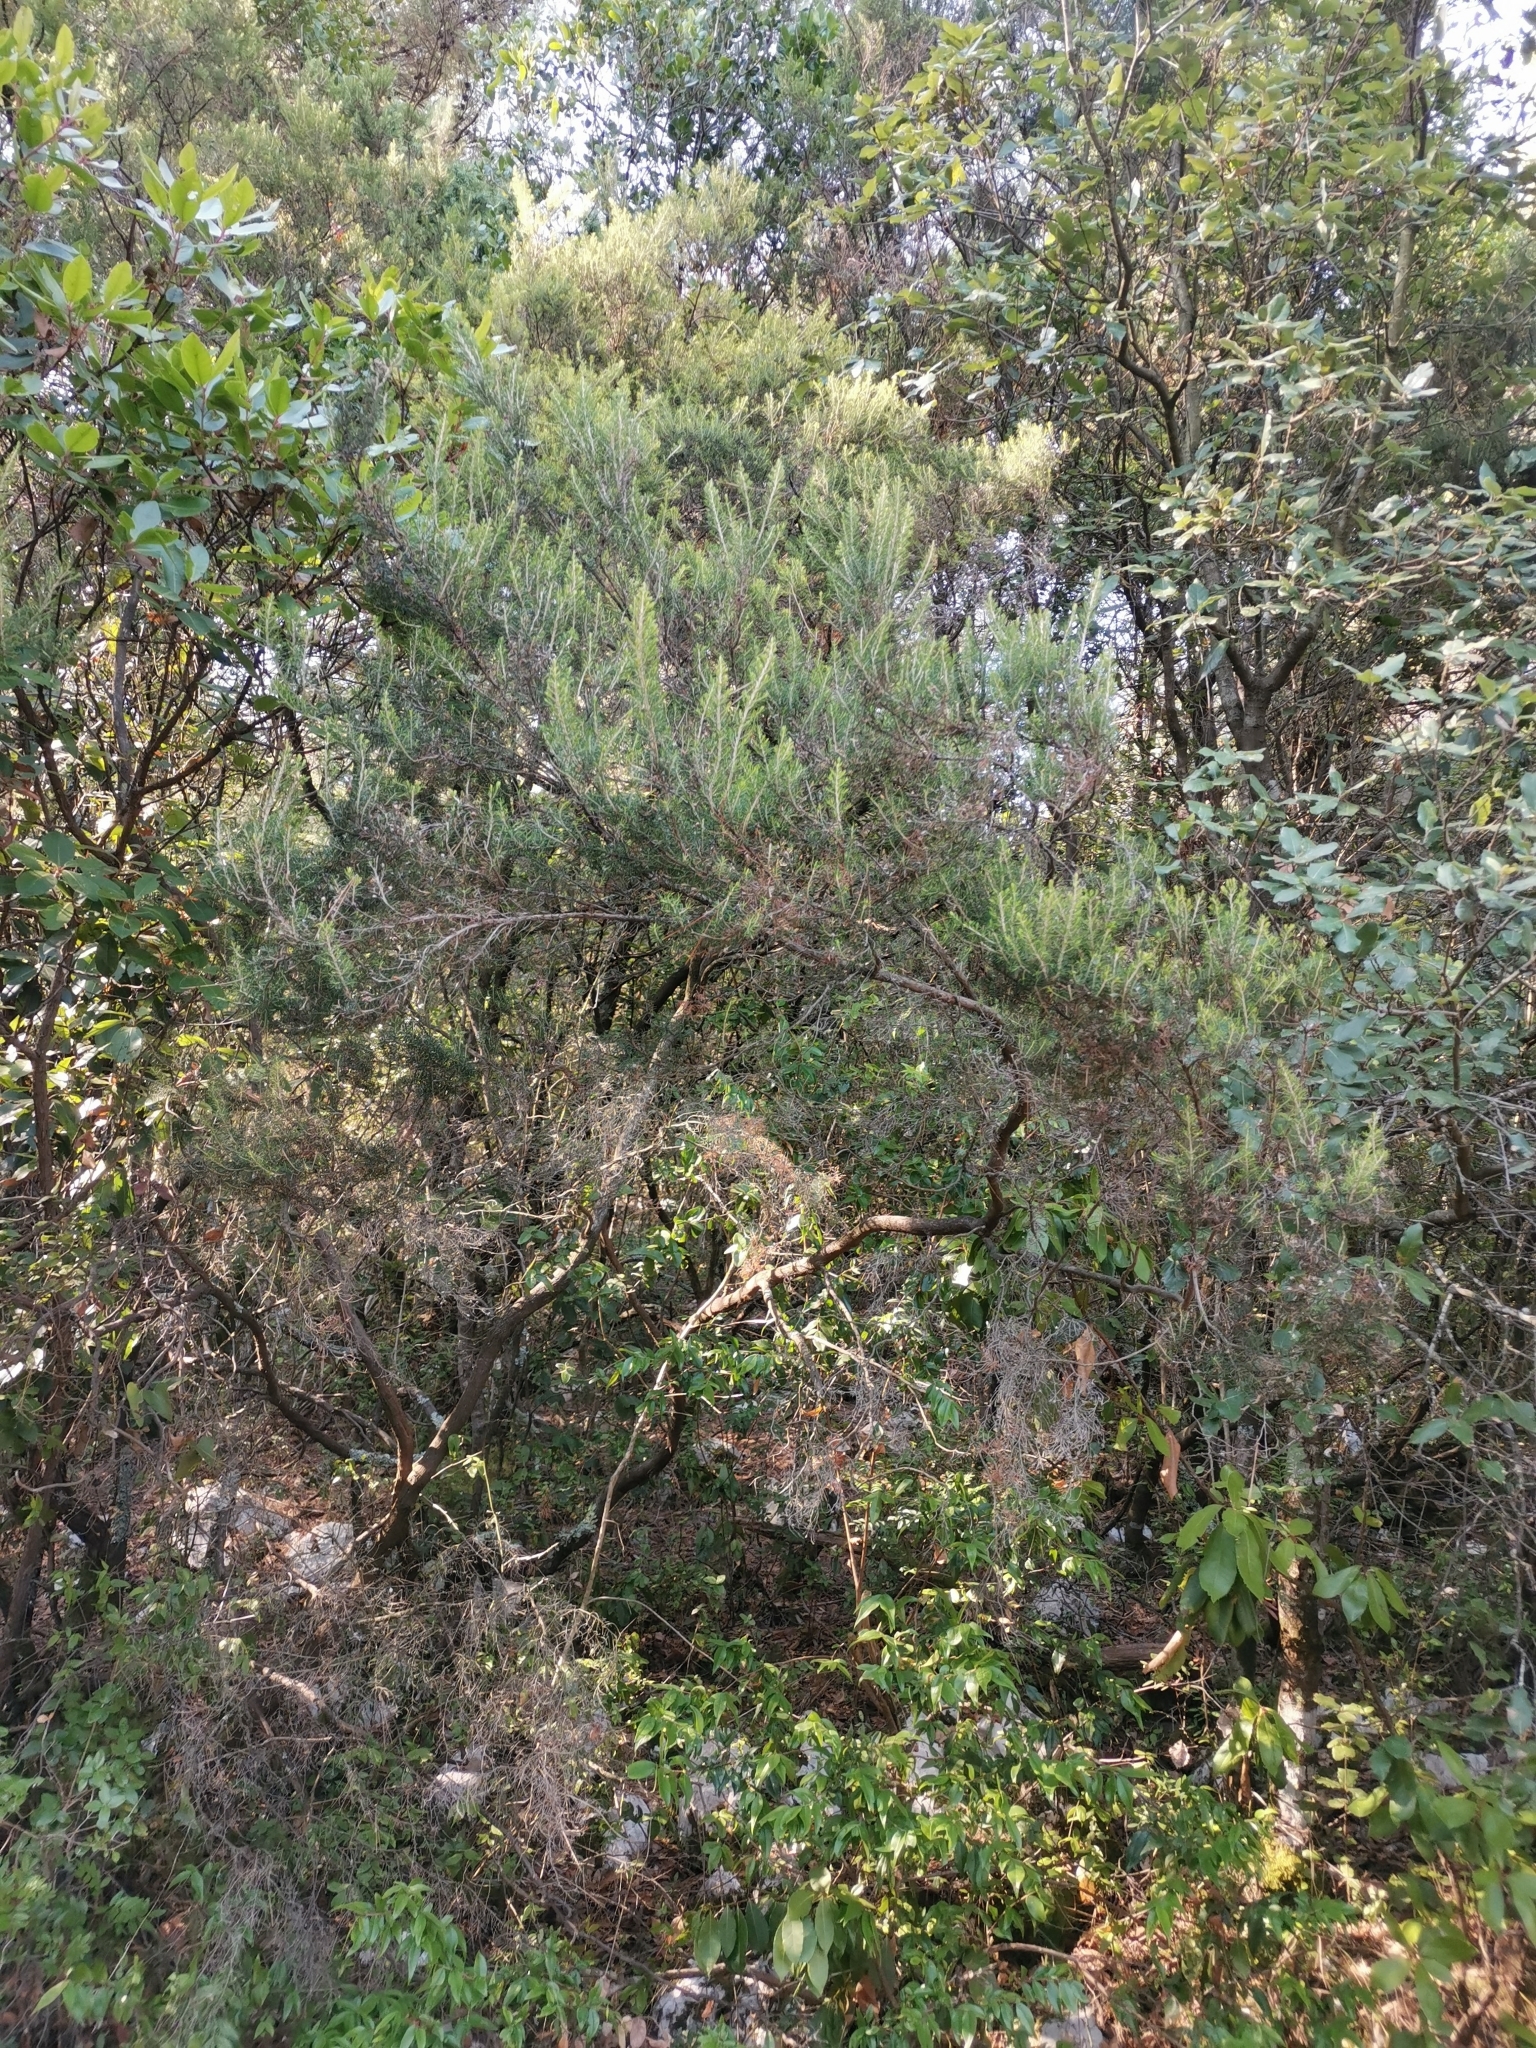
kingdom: Plantae
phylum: Tracheophyta
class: Magnoliopsida
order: Ericales
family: Ericaceae
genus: Erica
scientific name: Erica arborea
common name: Tree heath
